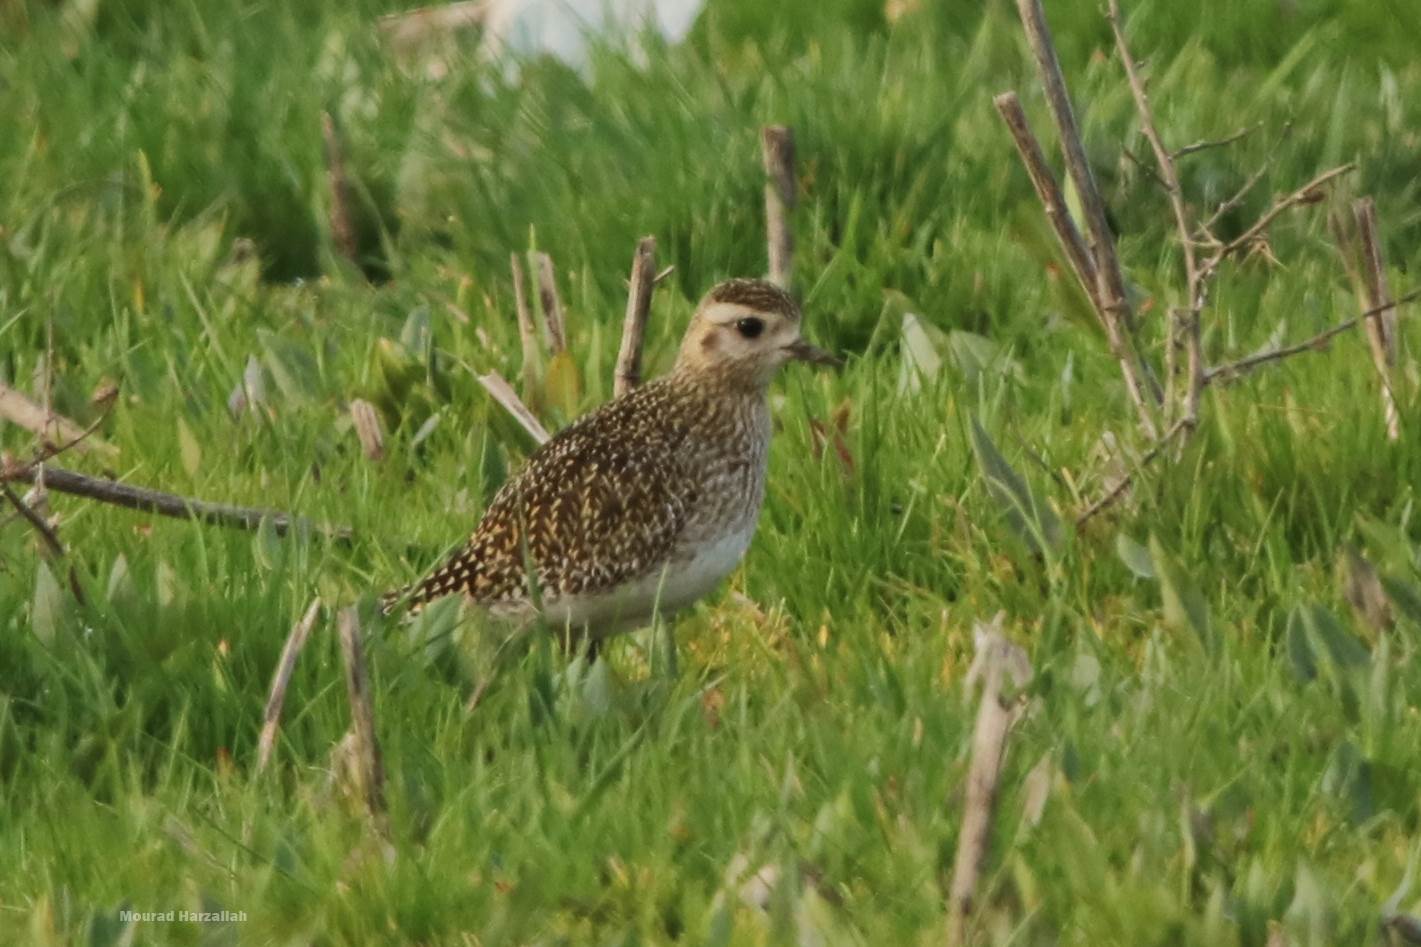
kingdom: Animalia
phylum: Chordata
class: Aves
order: Charadriiformes
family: Charadriidae
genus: Pluvialis
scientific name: Pluvialis apricaria
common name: European golden plover
